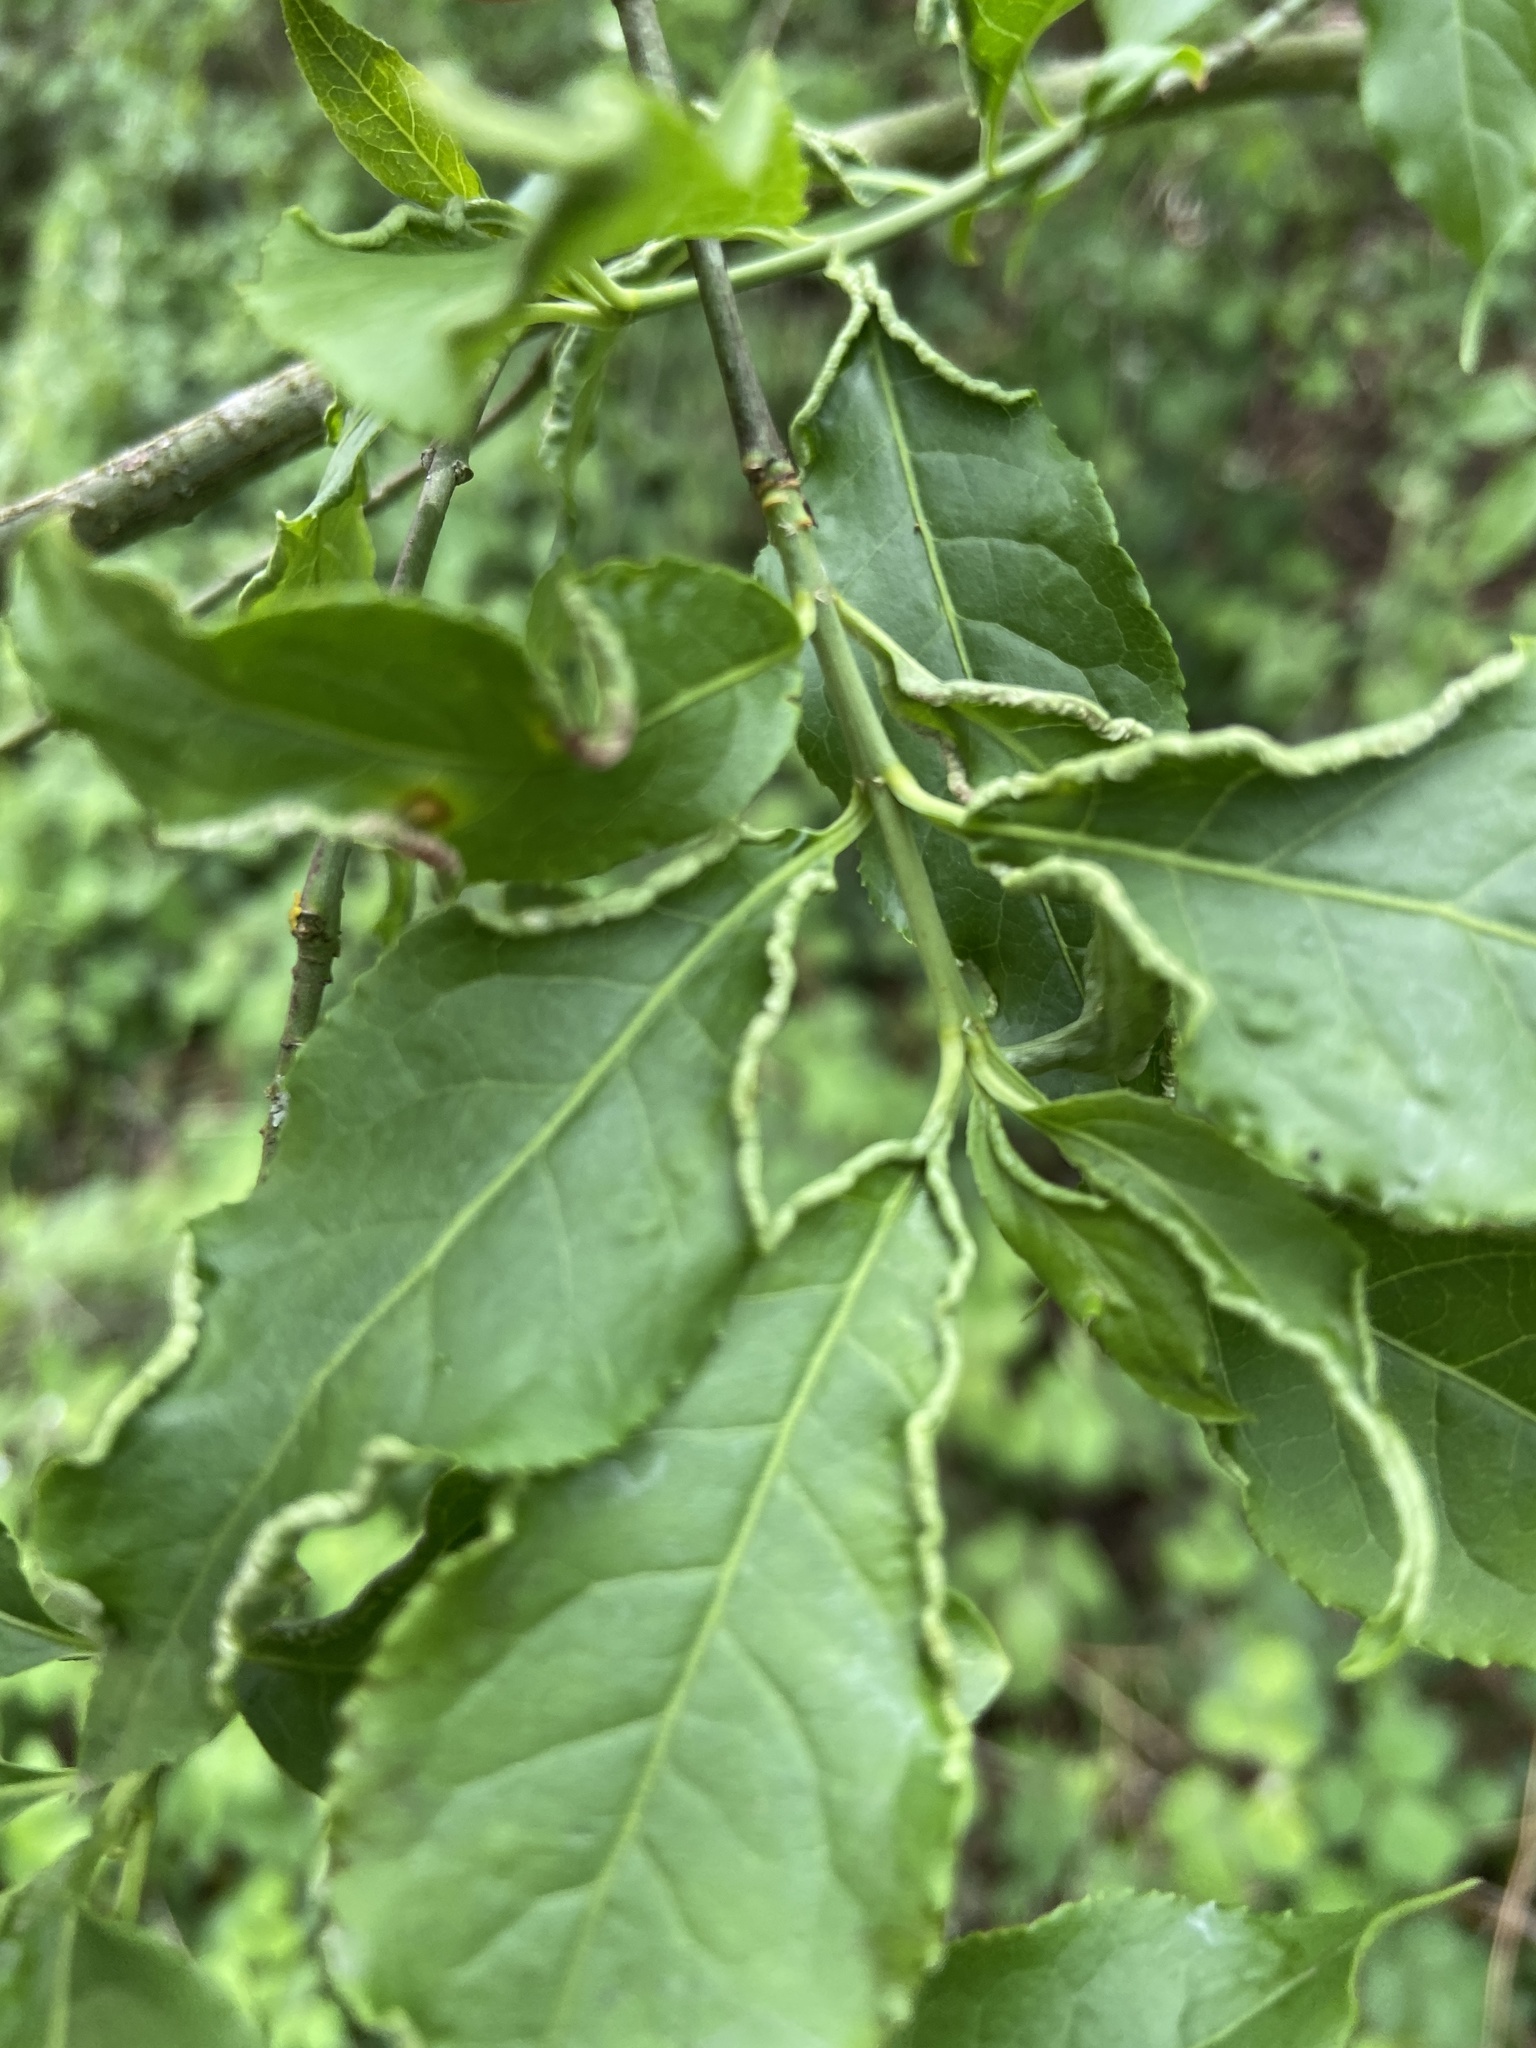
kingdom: Animalia
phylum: Arthropoda
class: Arachnida
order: Trombidiformes
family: Eriophyidae
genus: Stenacis
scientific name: Stenacis evonymi
